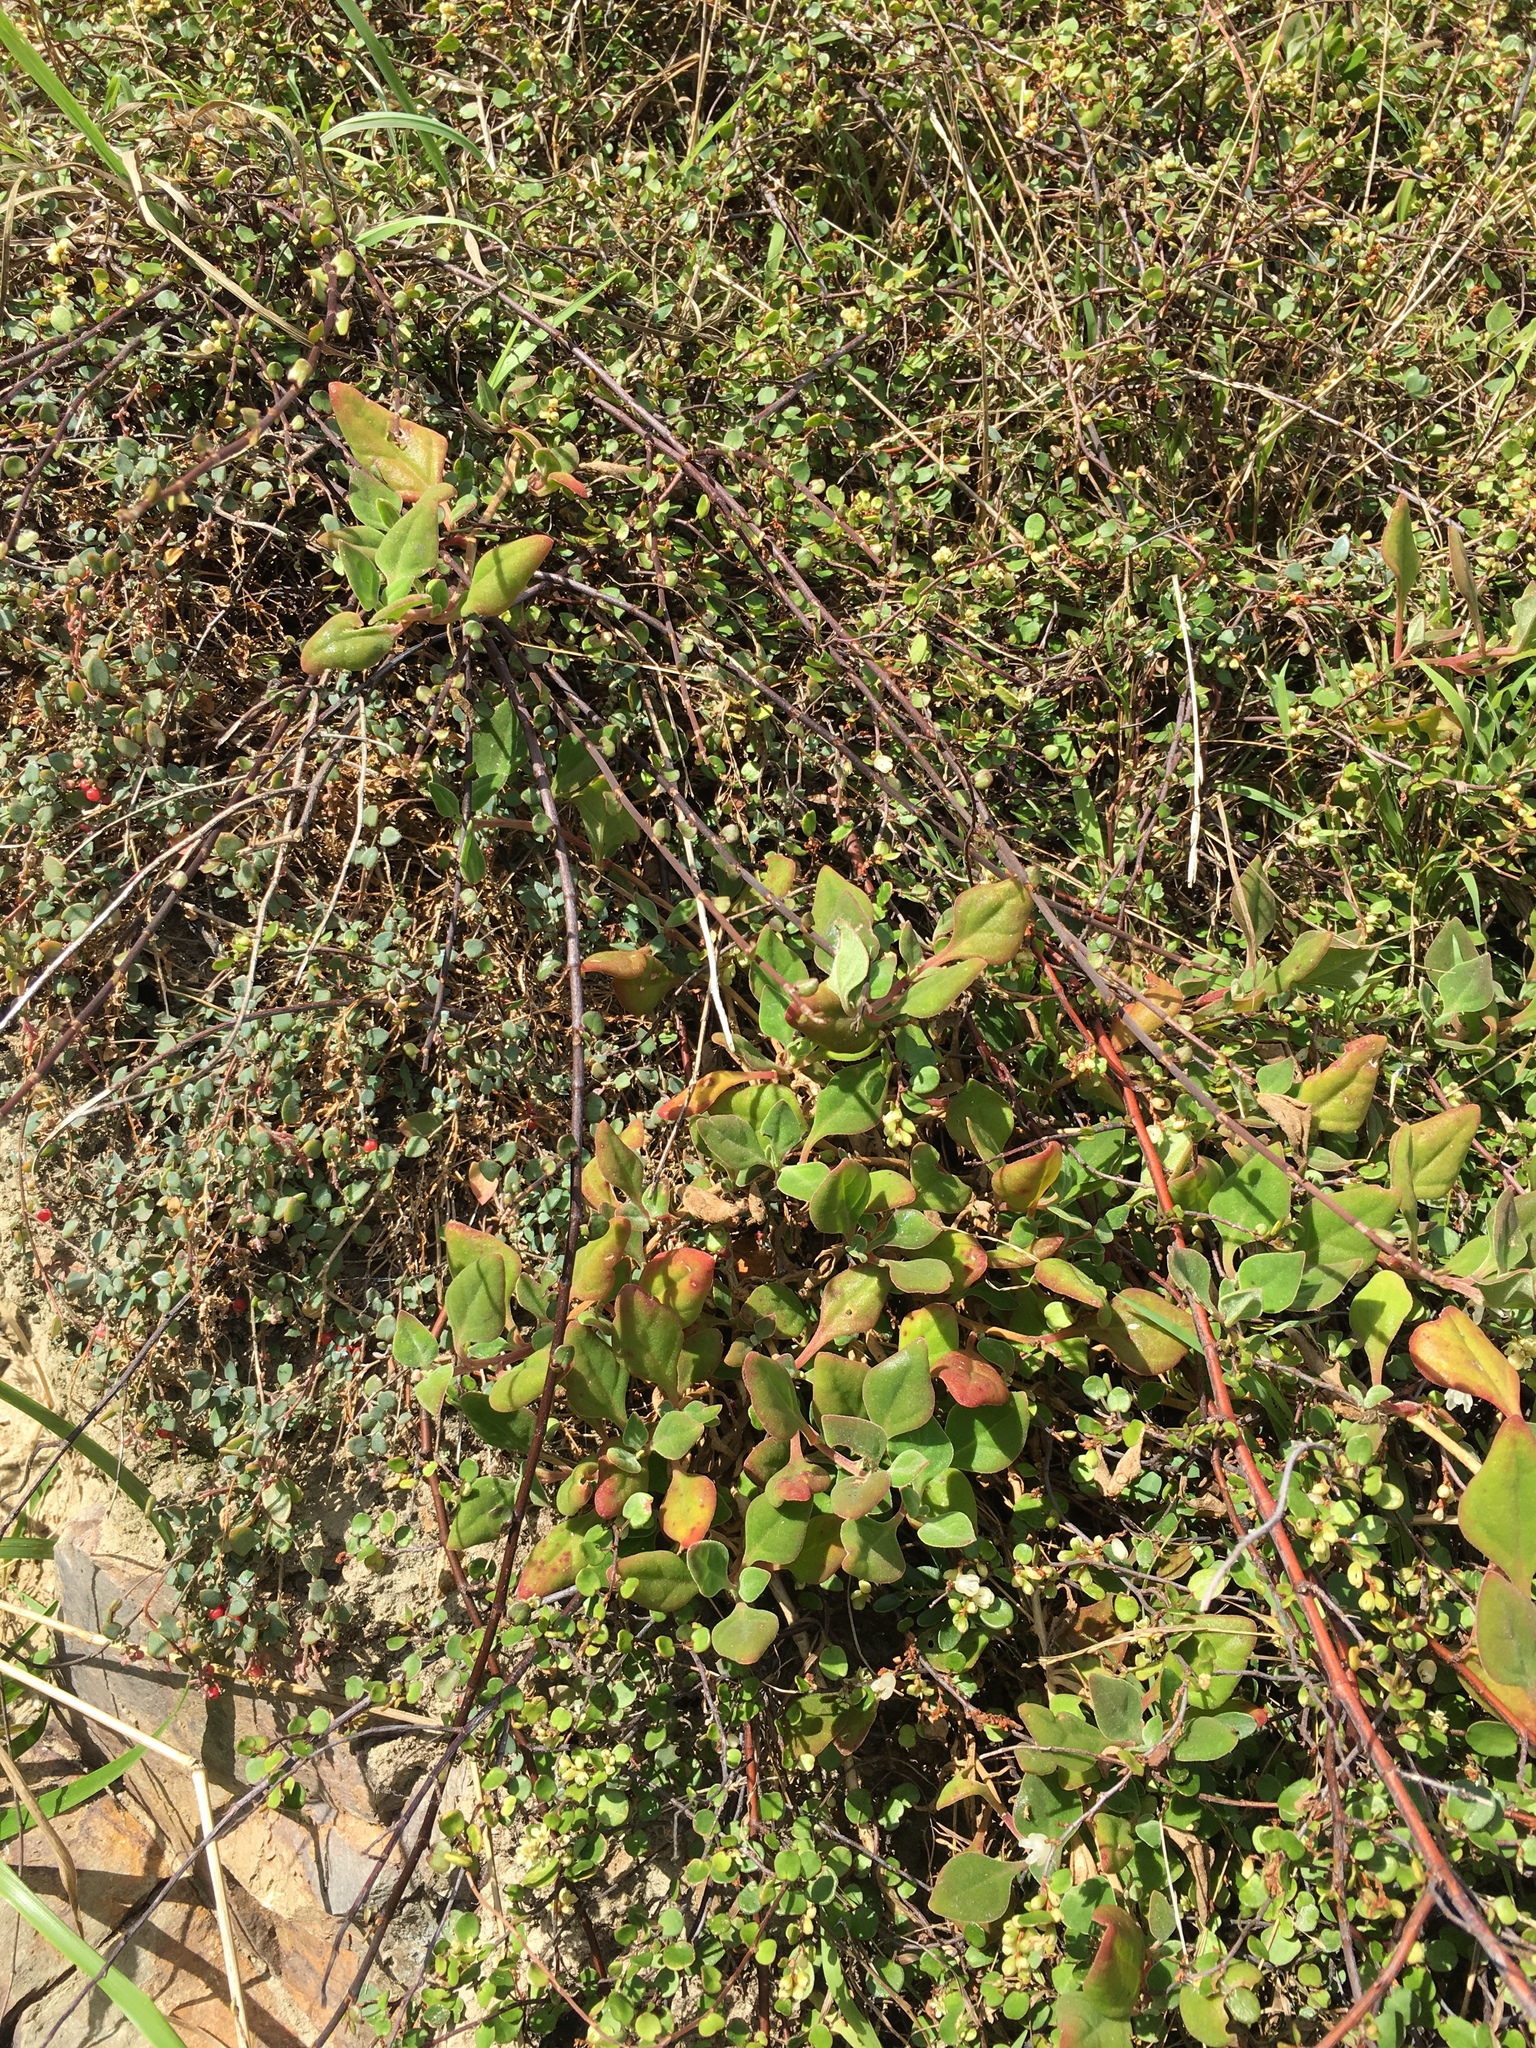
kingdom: Plantae
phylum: Tracheophyta
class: Magnoliopsida
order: Caryophyllales
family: Aizoaceae
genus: Tetragonia
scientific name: Tetragonia implexicoma
